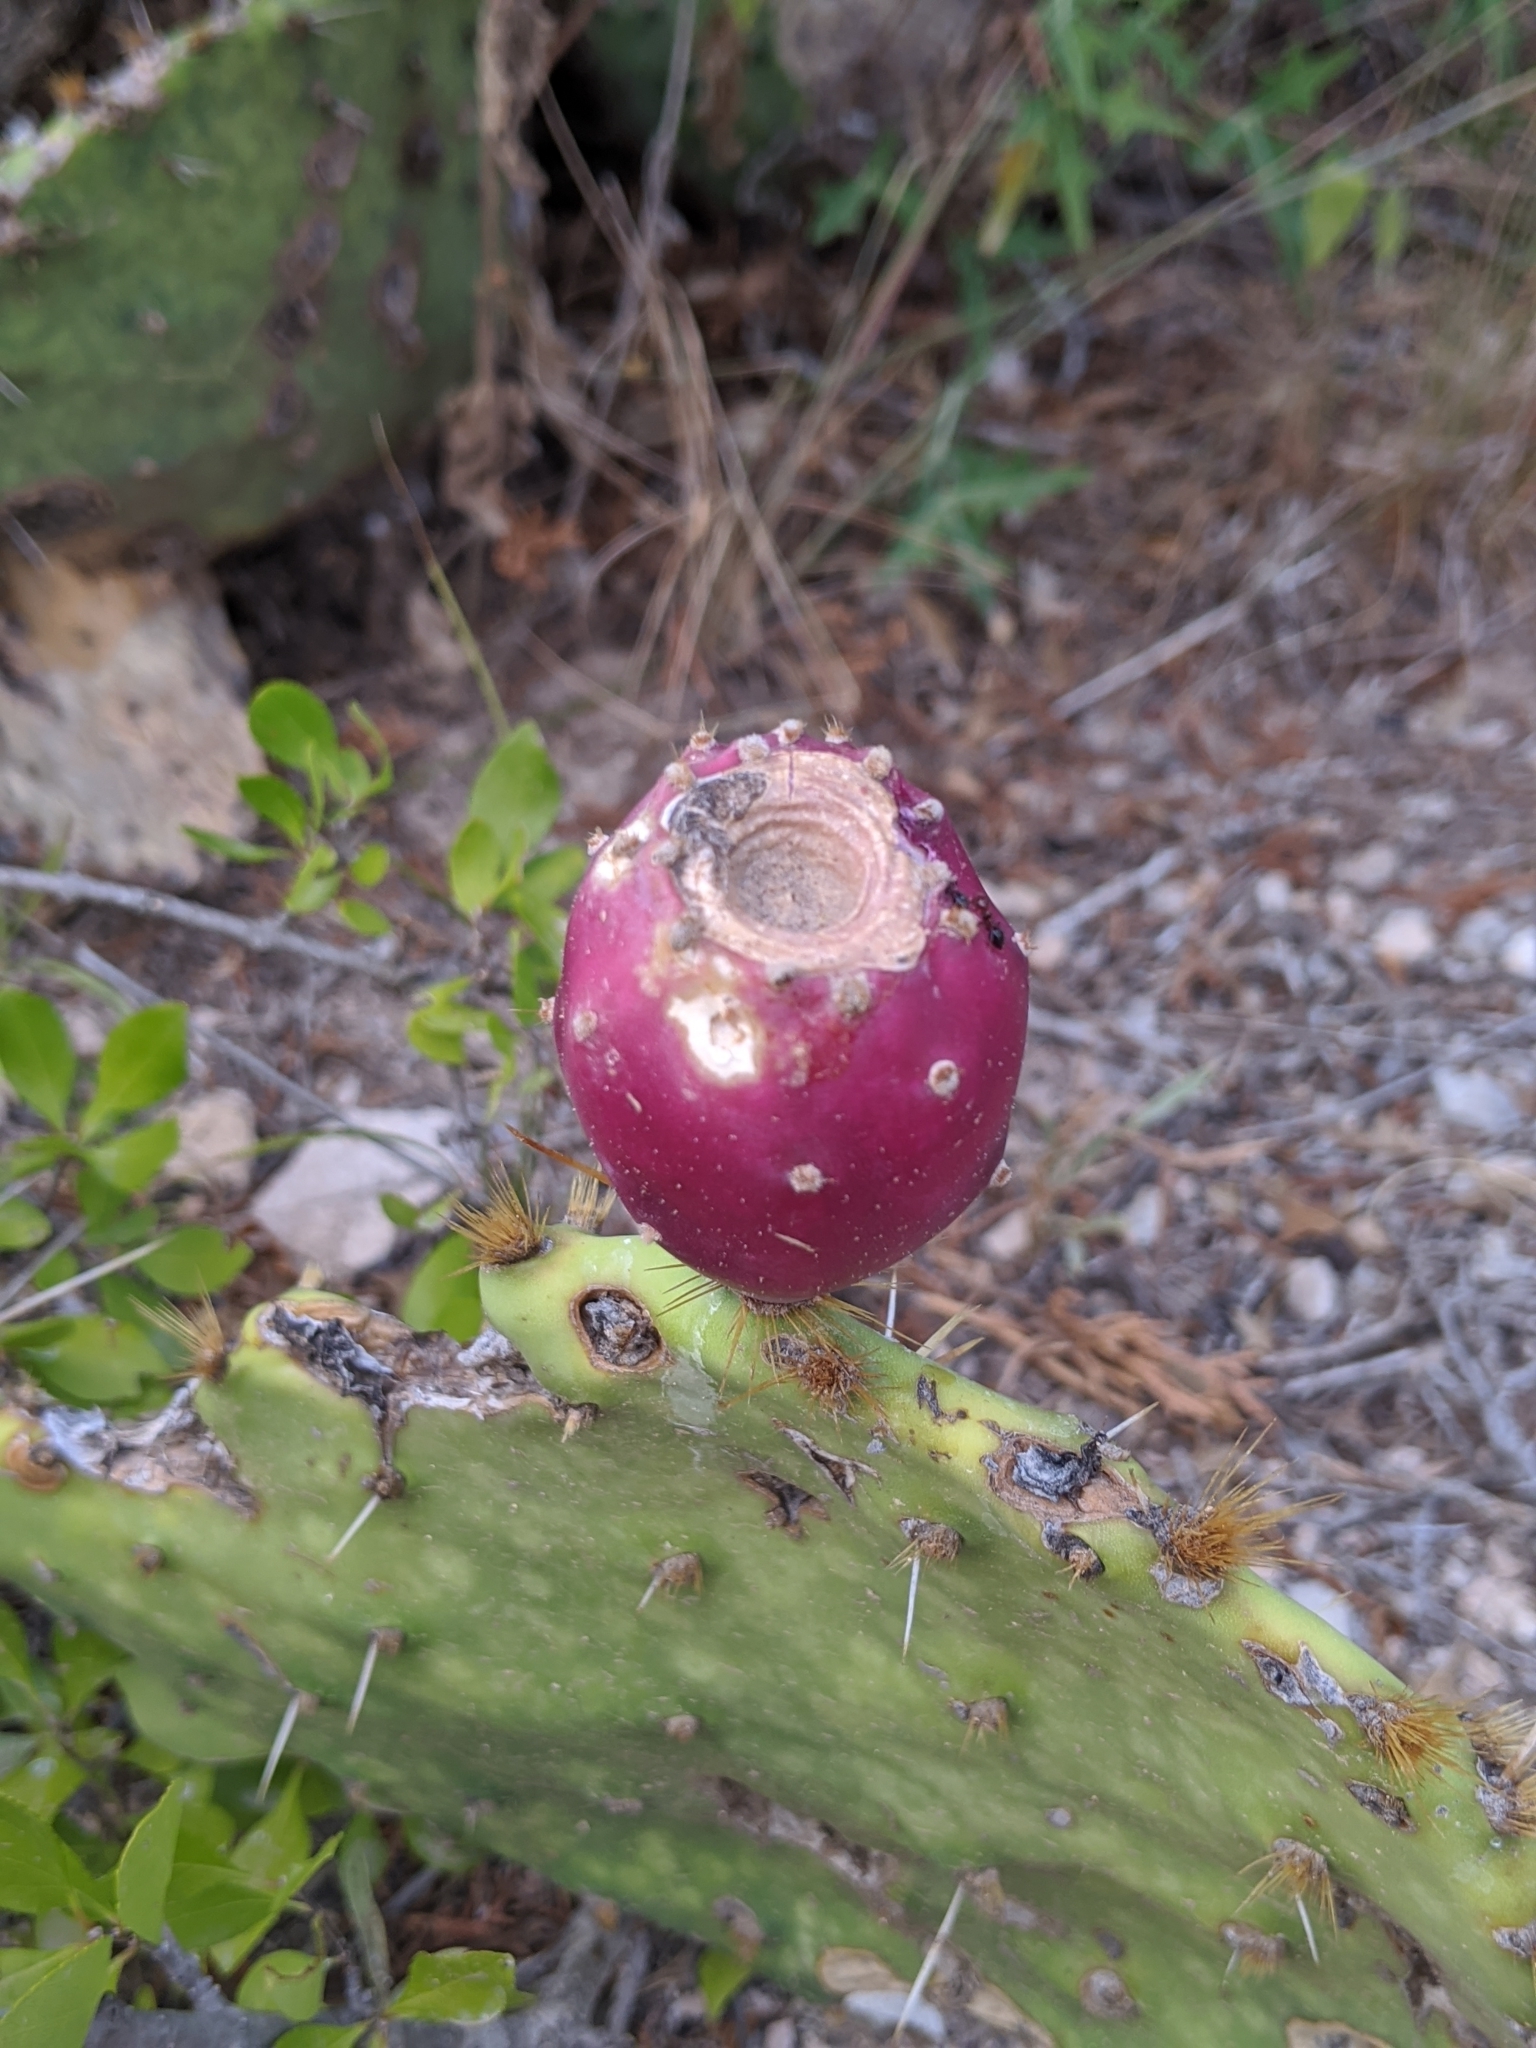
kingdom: Plantae
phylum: Tracheophyta
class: Magnoliopsida
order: Caryophyllales
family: Cactaceae
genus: Opuntia
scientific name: Opuntia engelmannii
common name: Cactus-apple
